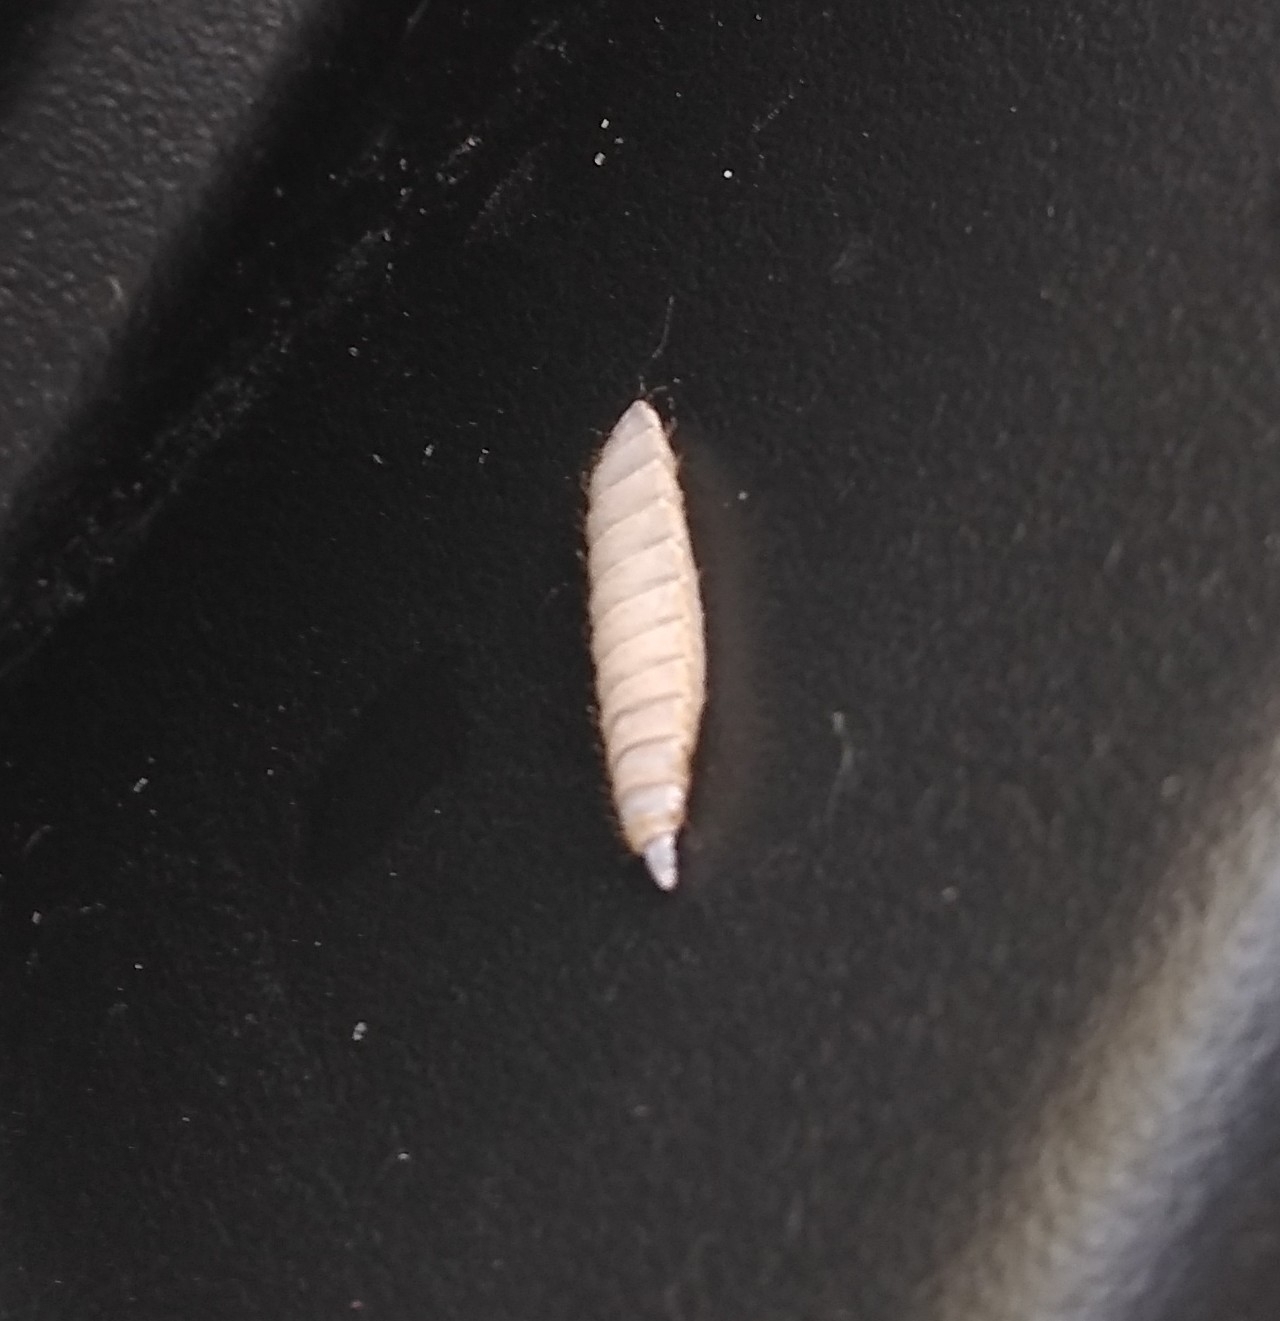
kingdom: Animalia
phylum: Arthropoda
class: Insecta
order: Diptera
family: Stratiomyidae
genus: Hermetia
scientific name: Hermetia illucens
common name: Black soldier fly
